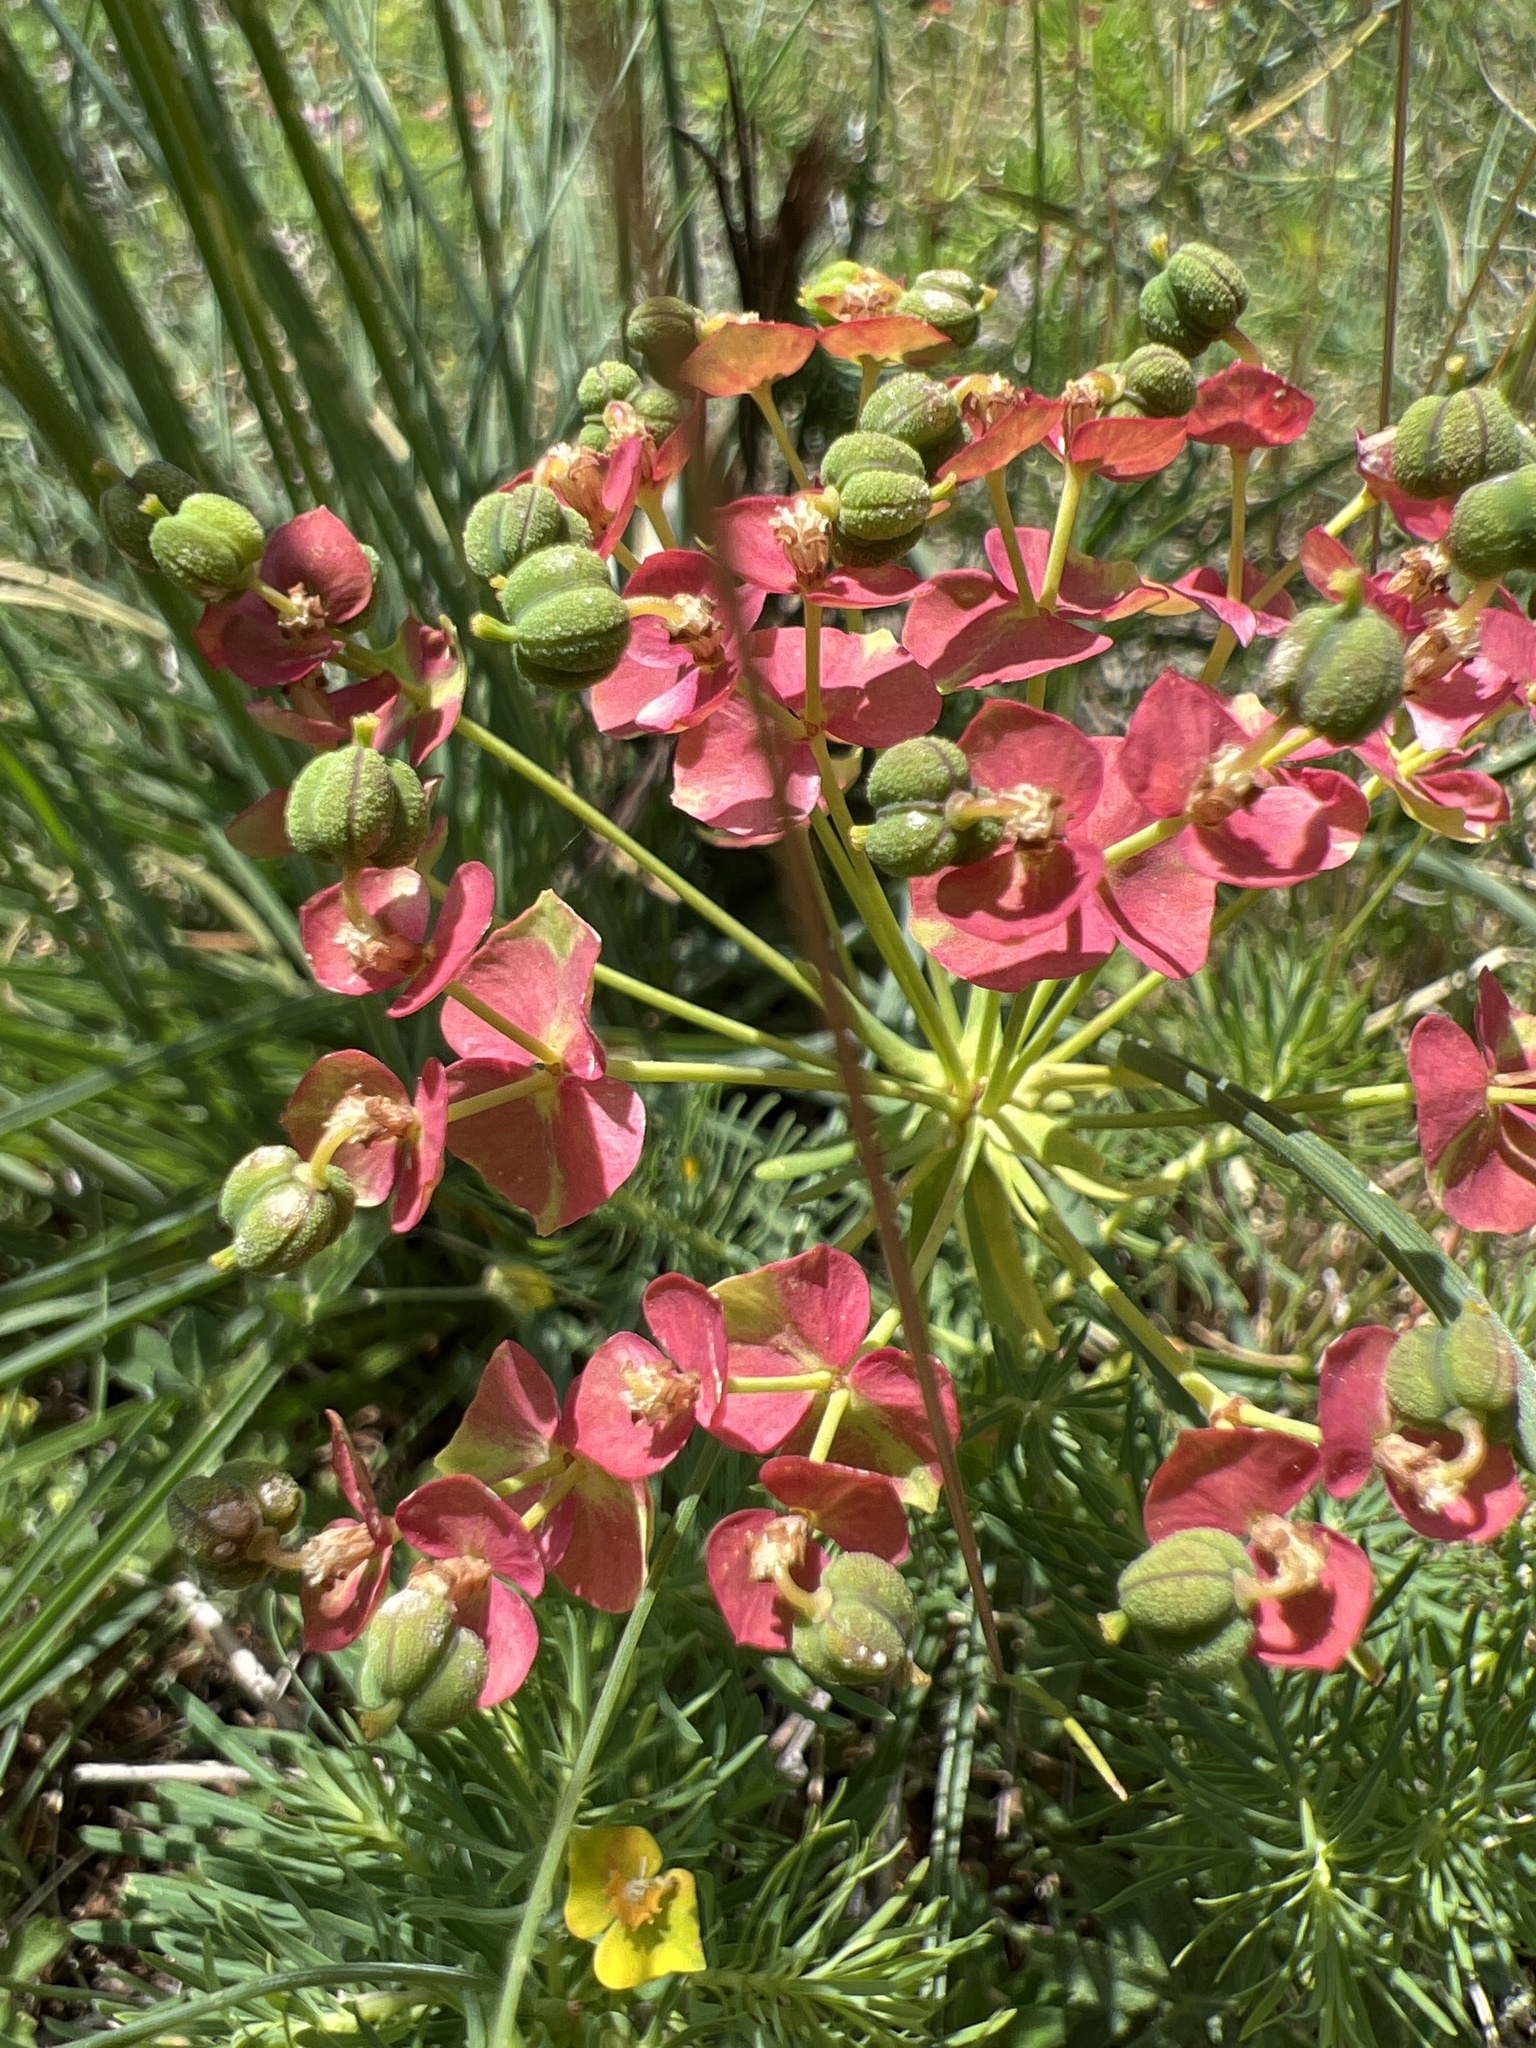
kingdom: Plantae
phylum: Tracheophyta
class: Magnoliopsida
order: Malpighiales
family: Euphorbiaceae
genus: Euphorbia
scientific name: Euphorbia cyparissias
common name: Cypress spurge
